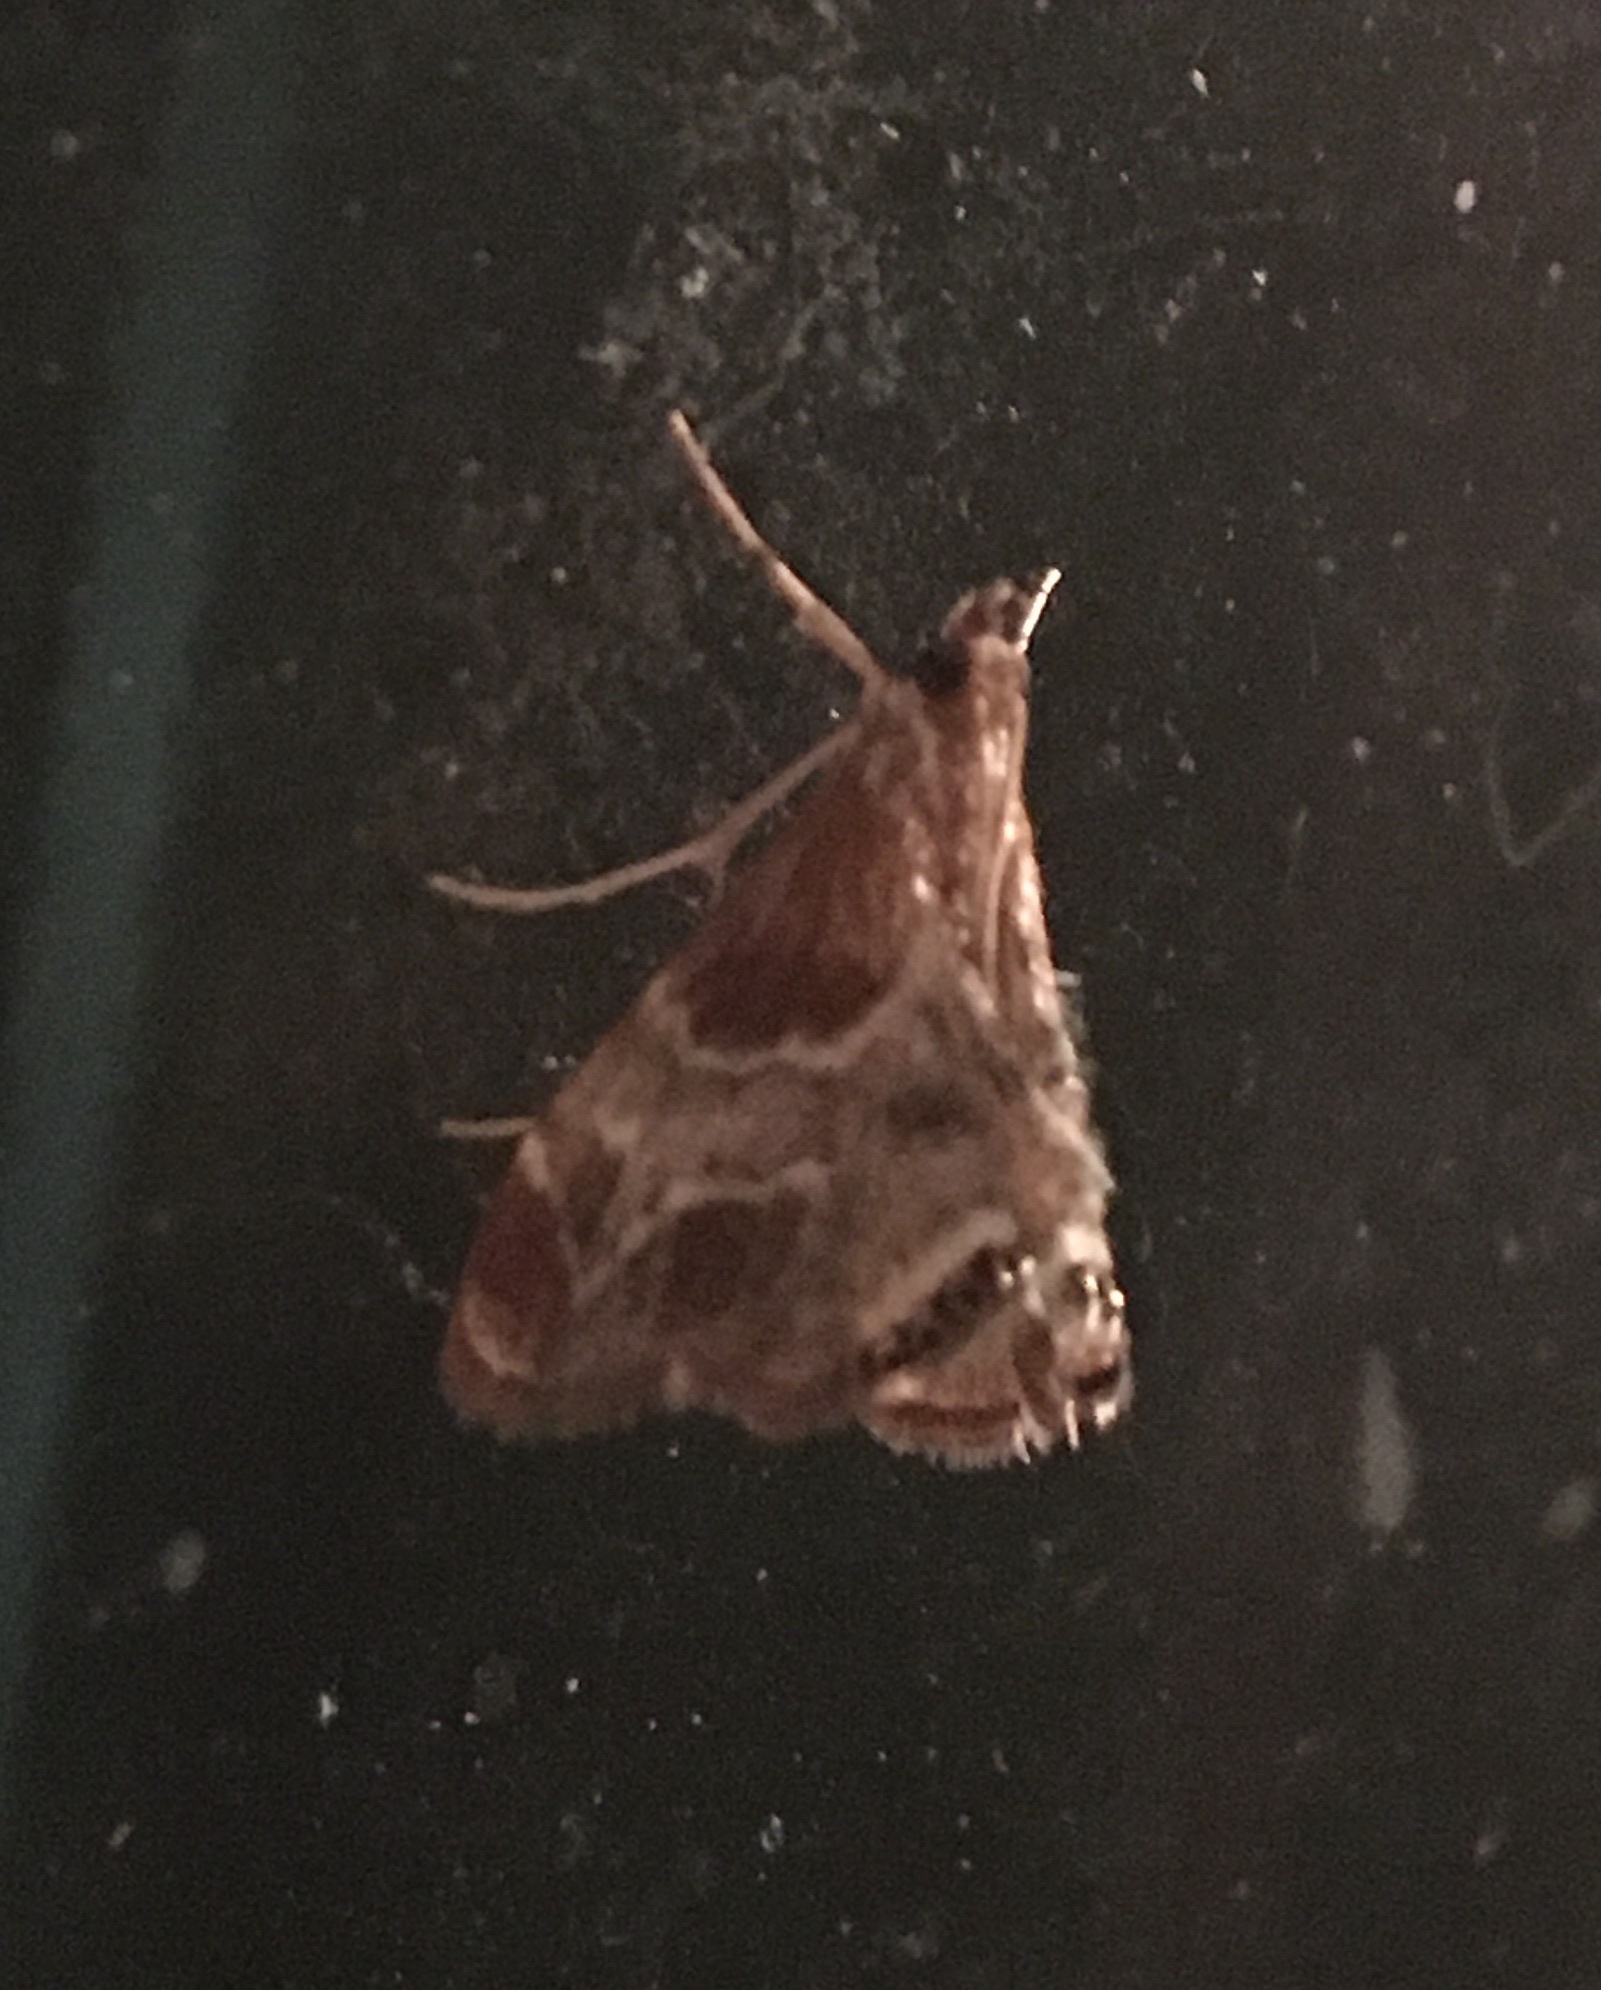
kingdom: Animalia
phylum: Arthropoda
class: Insecta
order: Lepidoptera
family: Crambidae
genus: Chalcoela
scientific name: Chalcoela pegasalis
